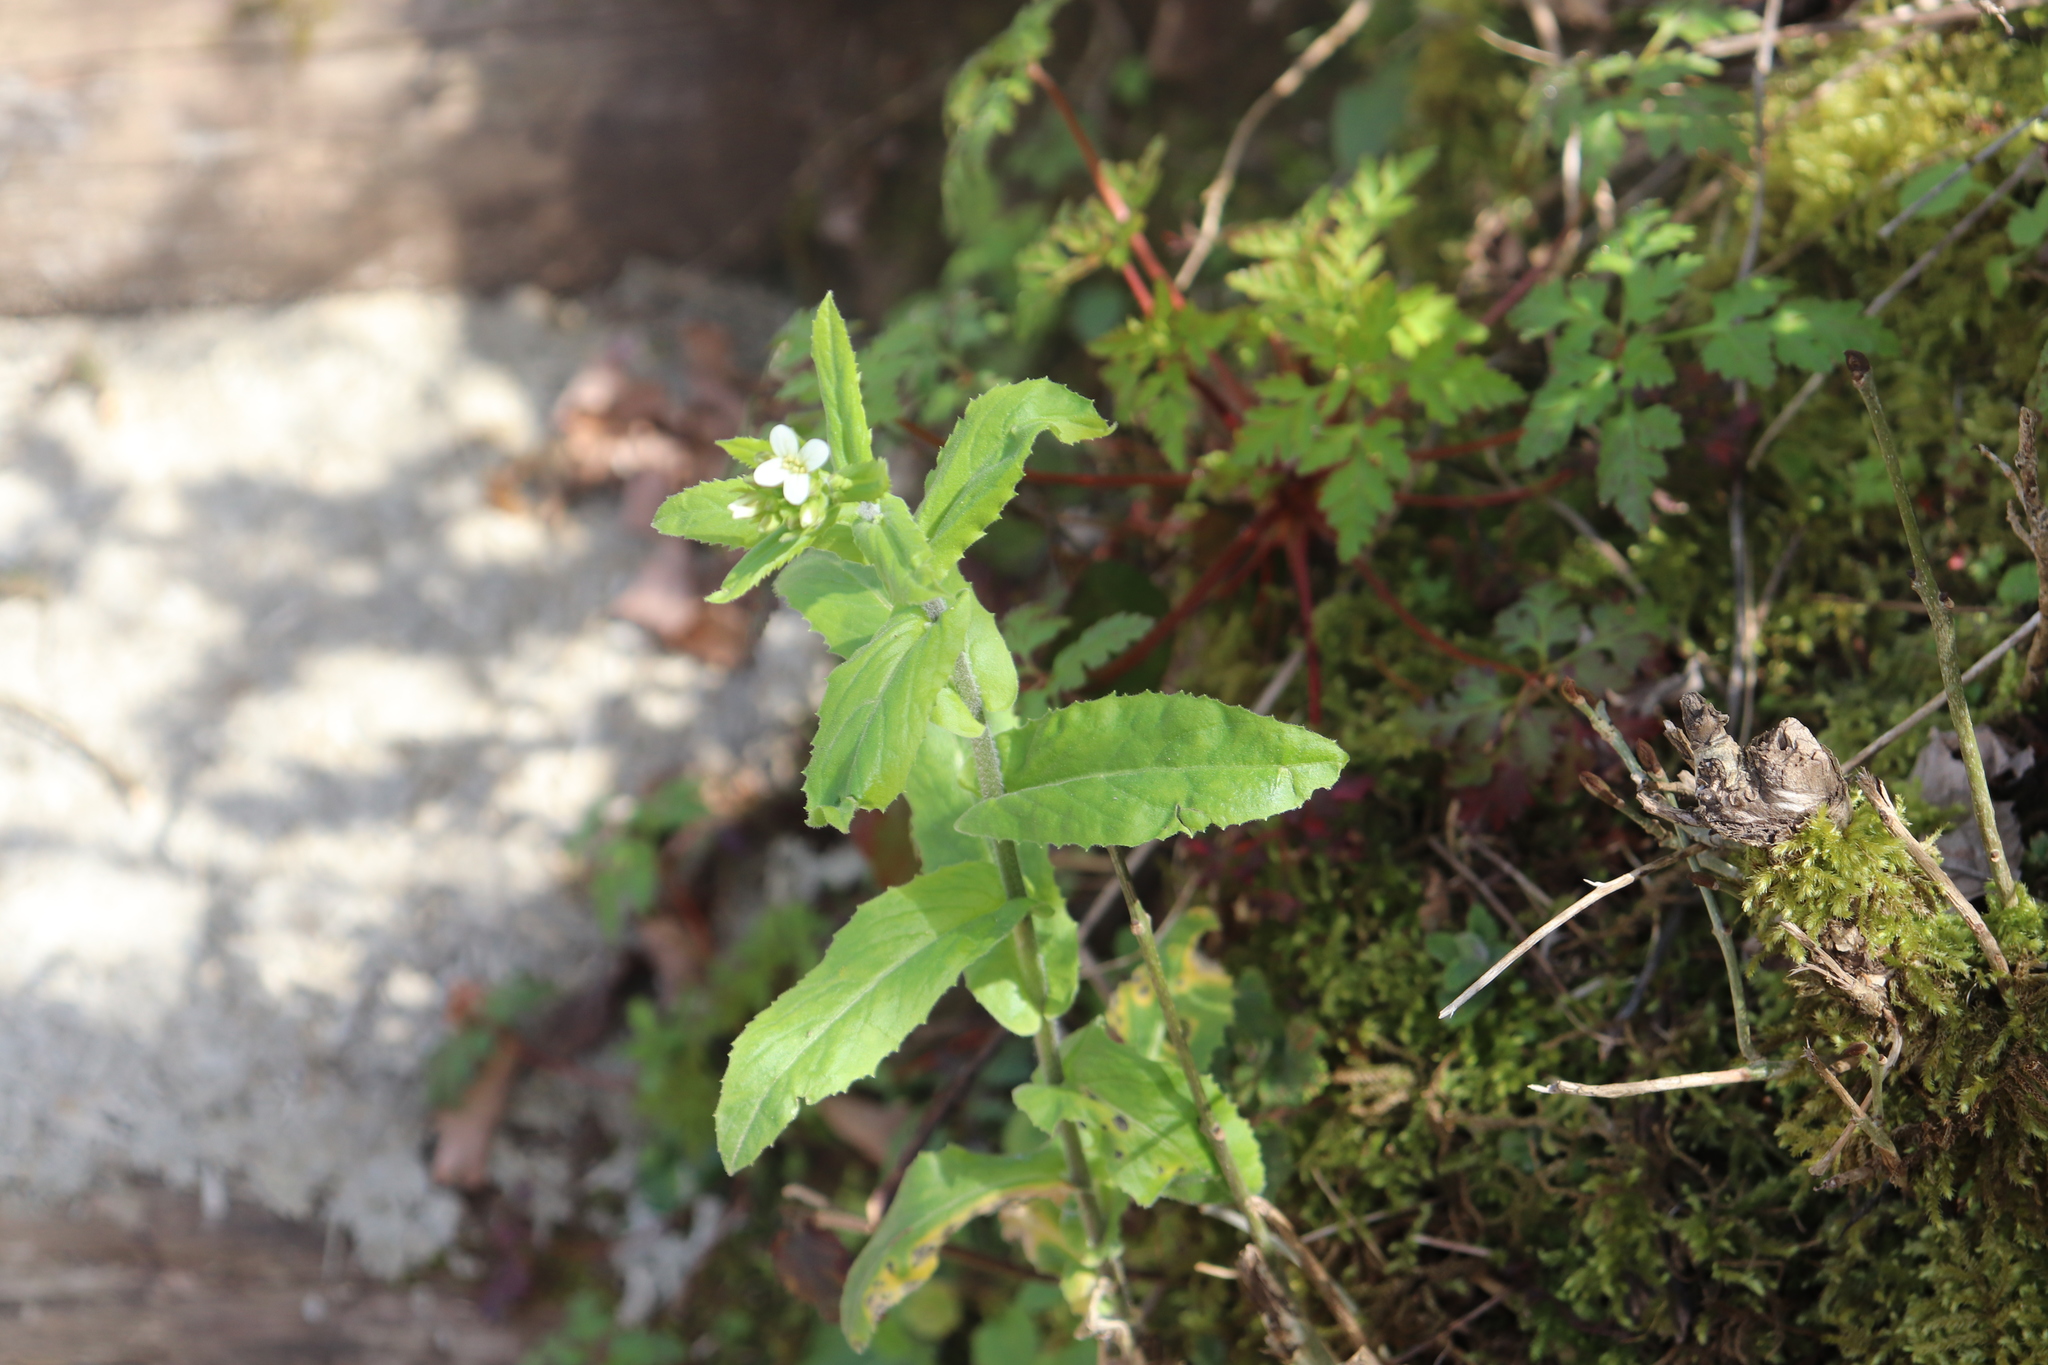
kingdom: Plantae
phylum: Tracheophyta
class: Magnoliopsida
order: Brassicales
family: Brassicaceae
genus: Pseudoturritis
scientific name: Pseudoturritis turrita
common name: Tower cress
